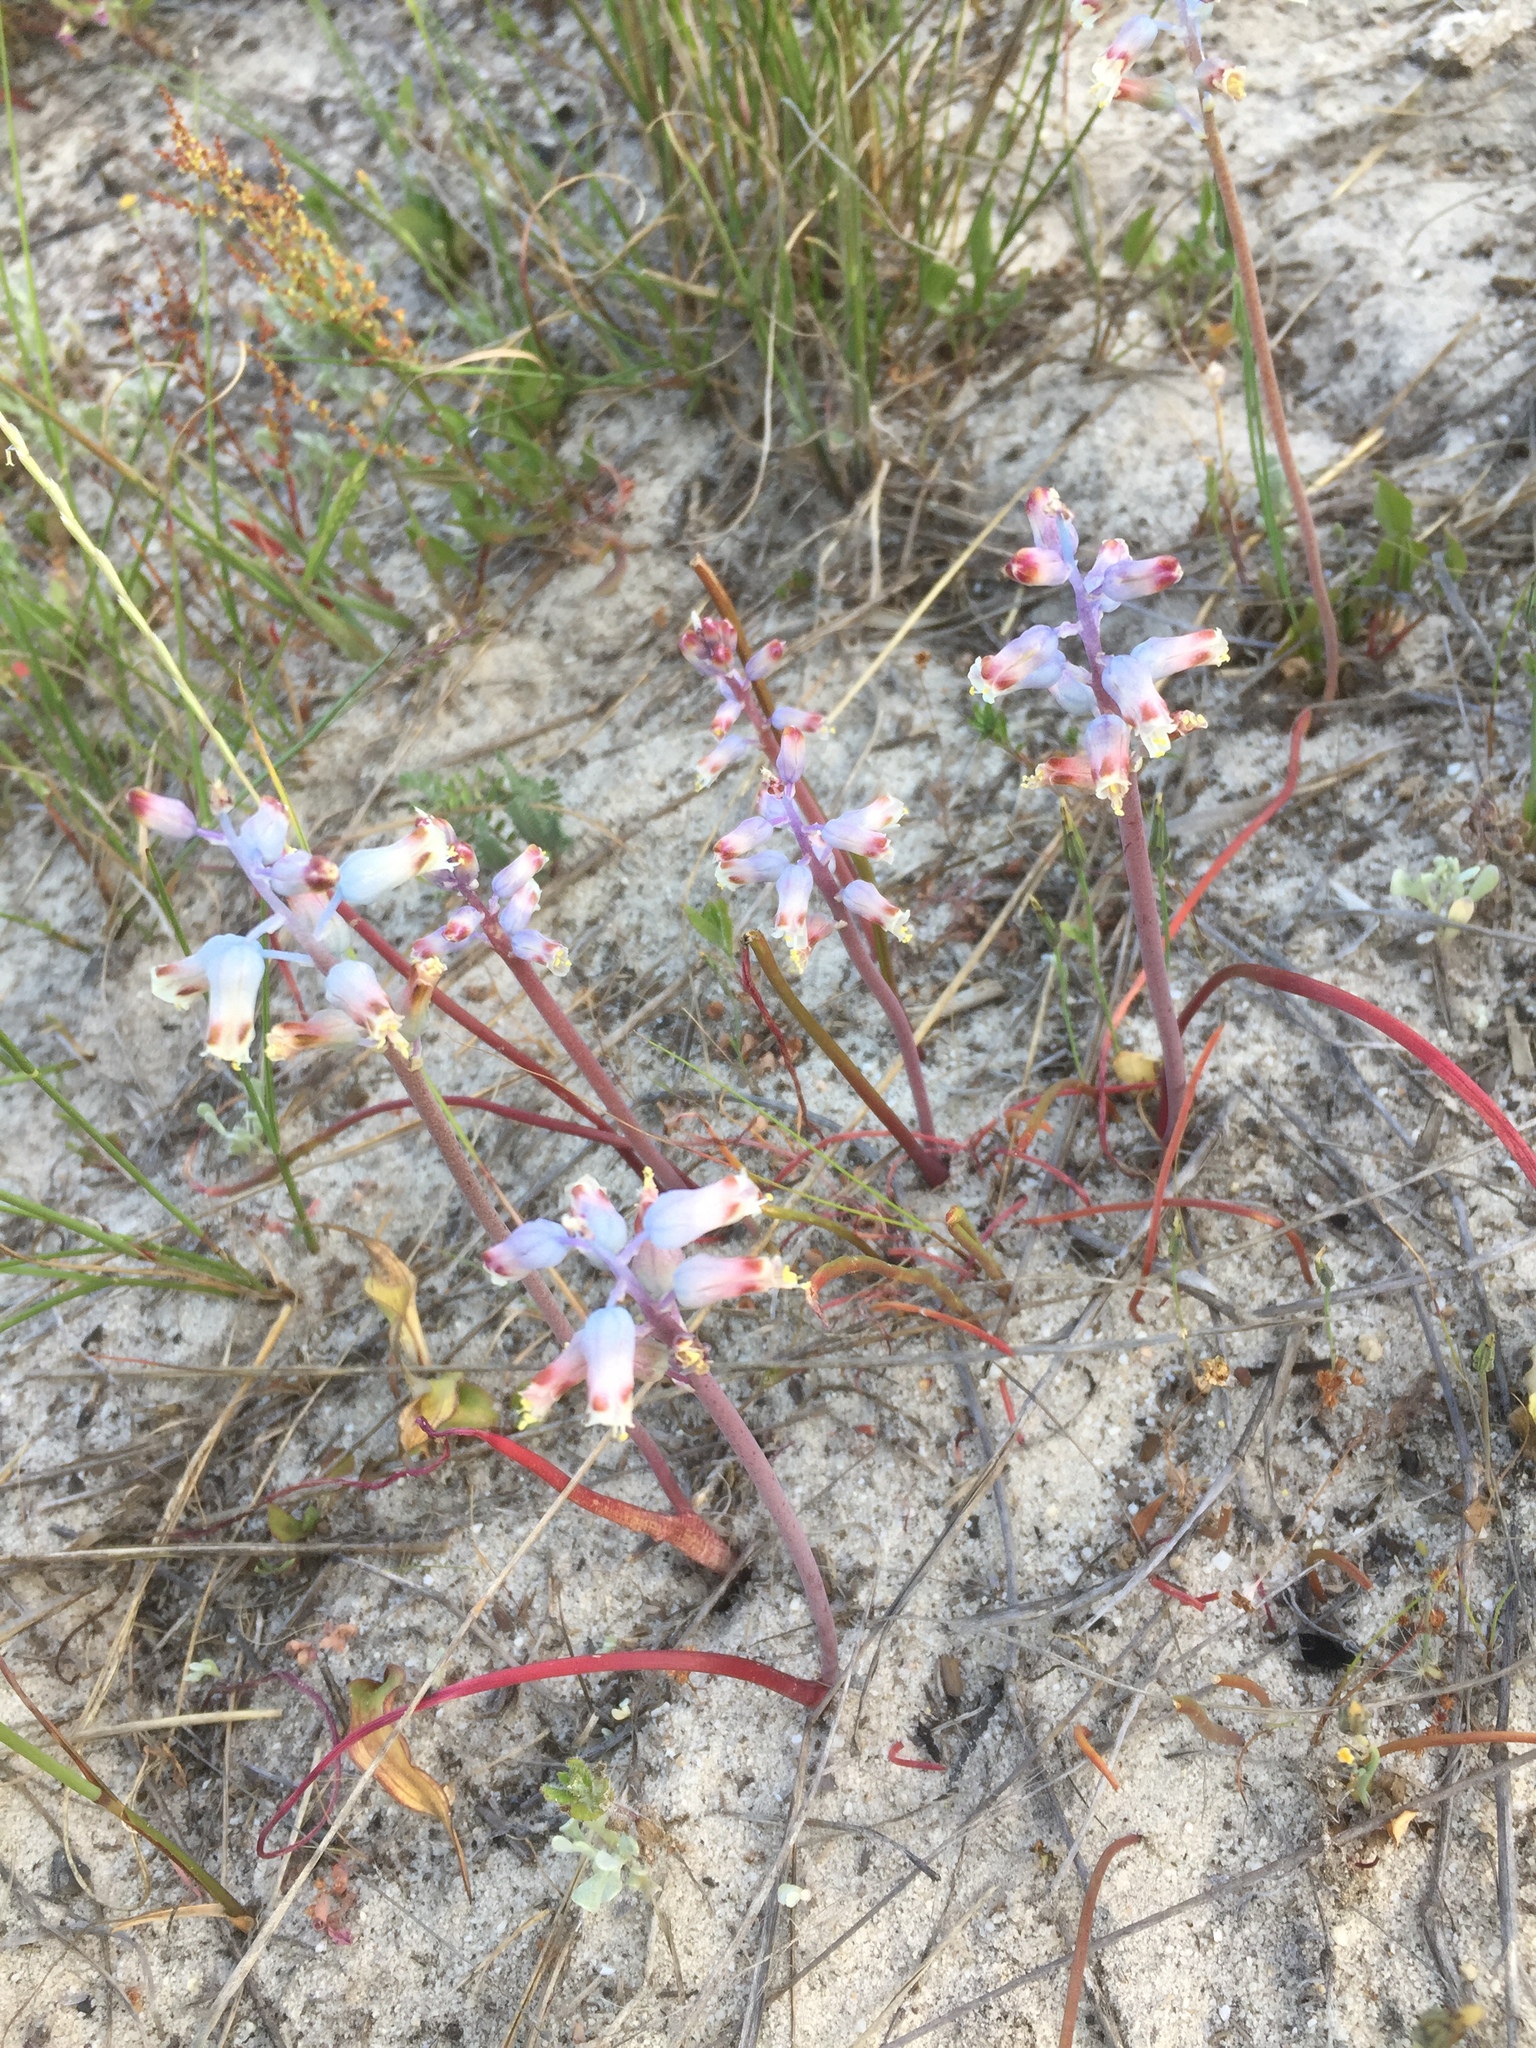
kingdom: Plantae
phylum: Tracheophyta
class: Liliopsida
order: Asparagales
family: Asparagaceae
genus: Lachenalia
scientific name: Lachenalia unifolia
